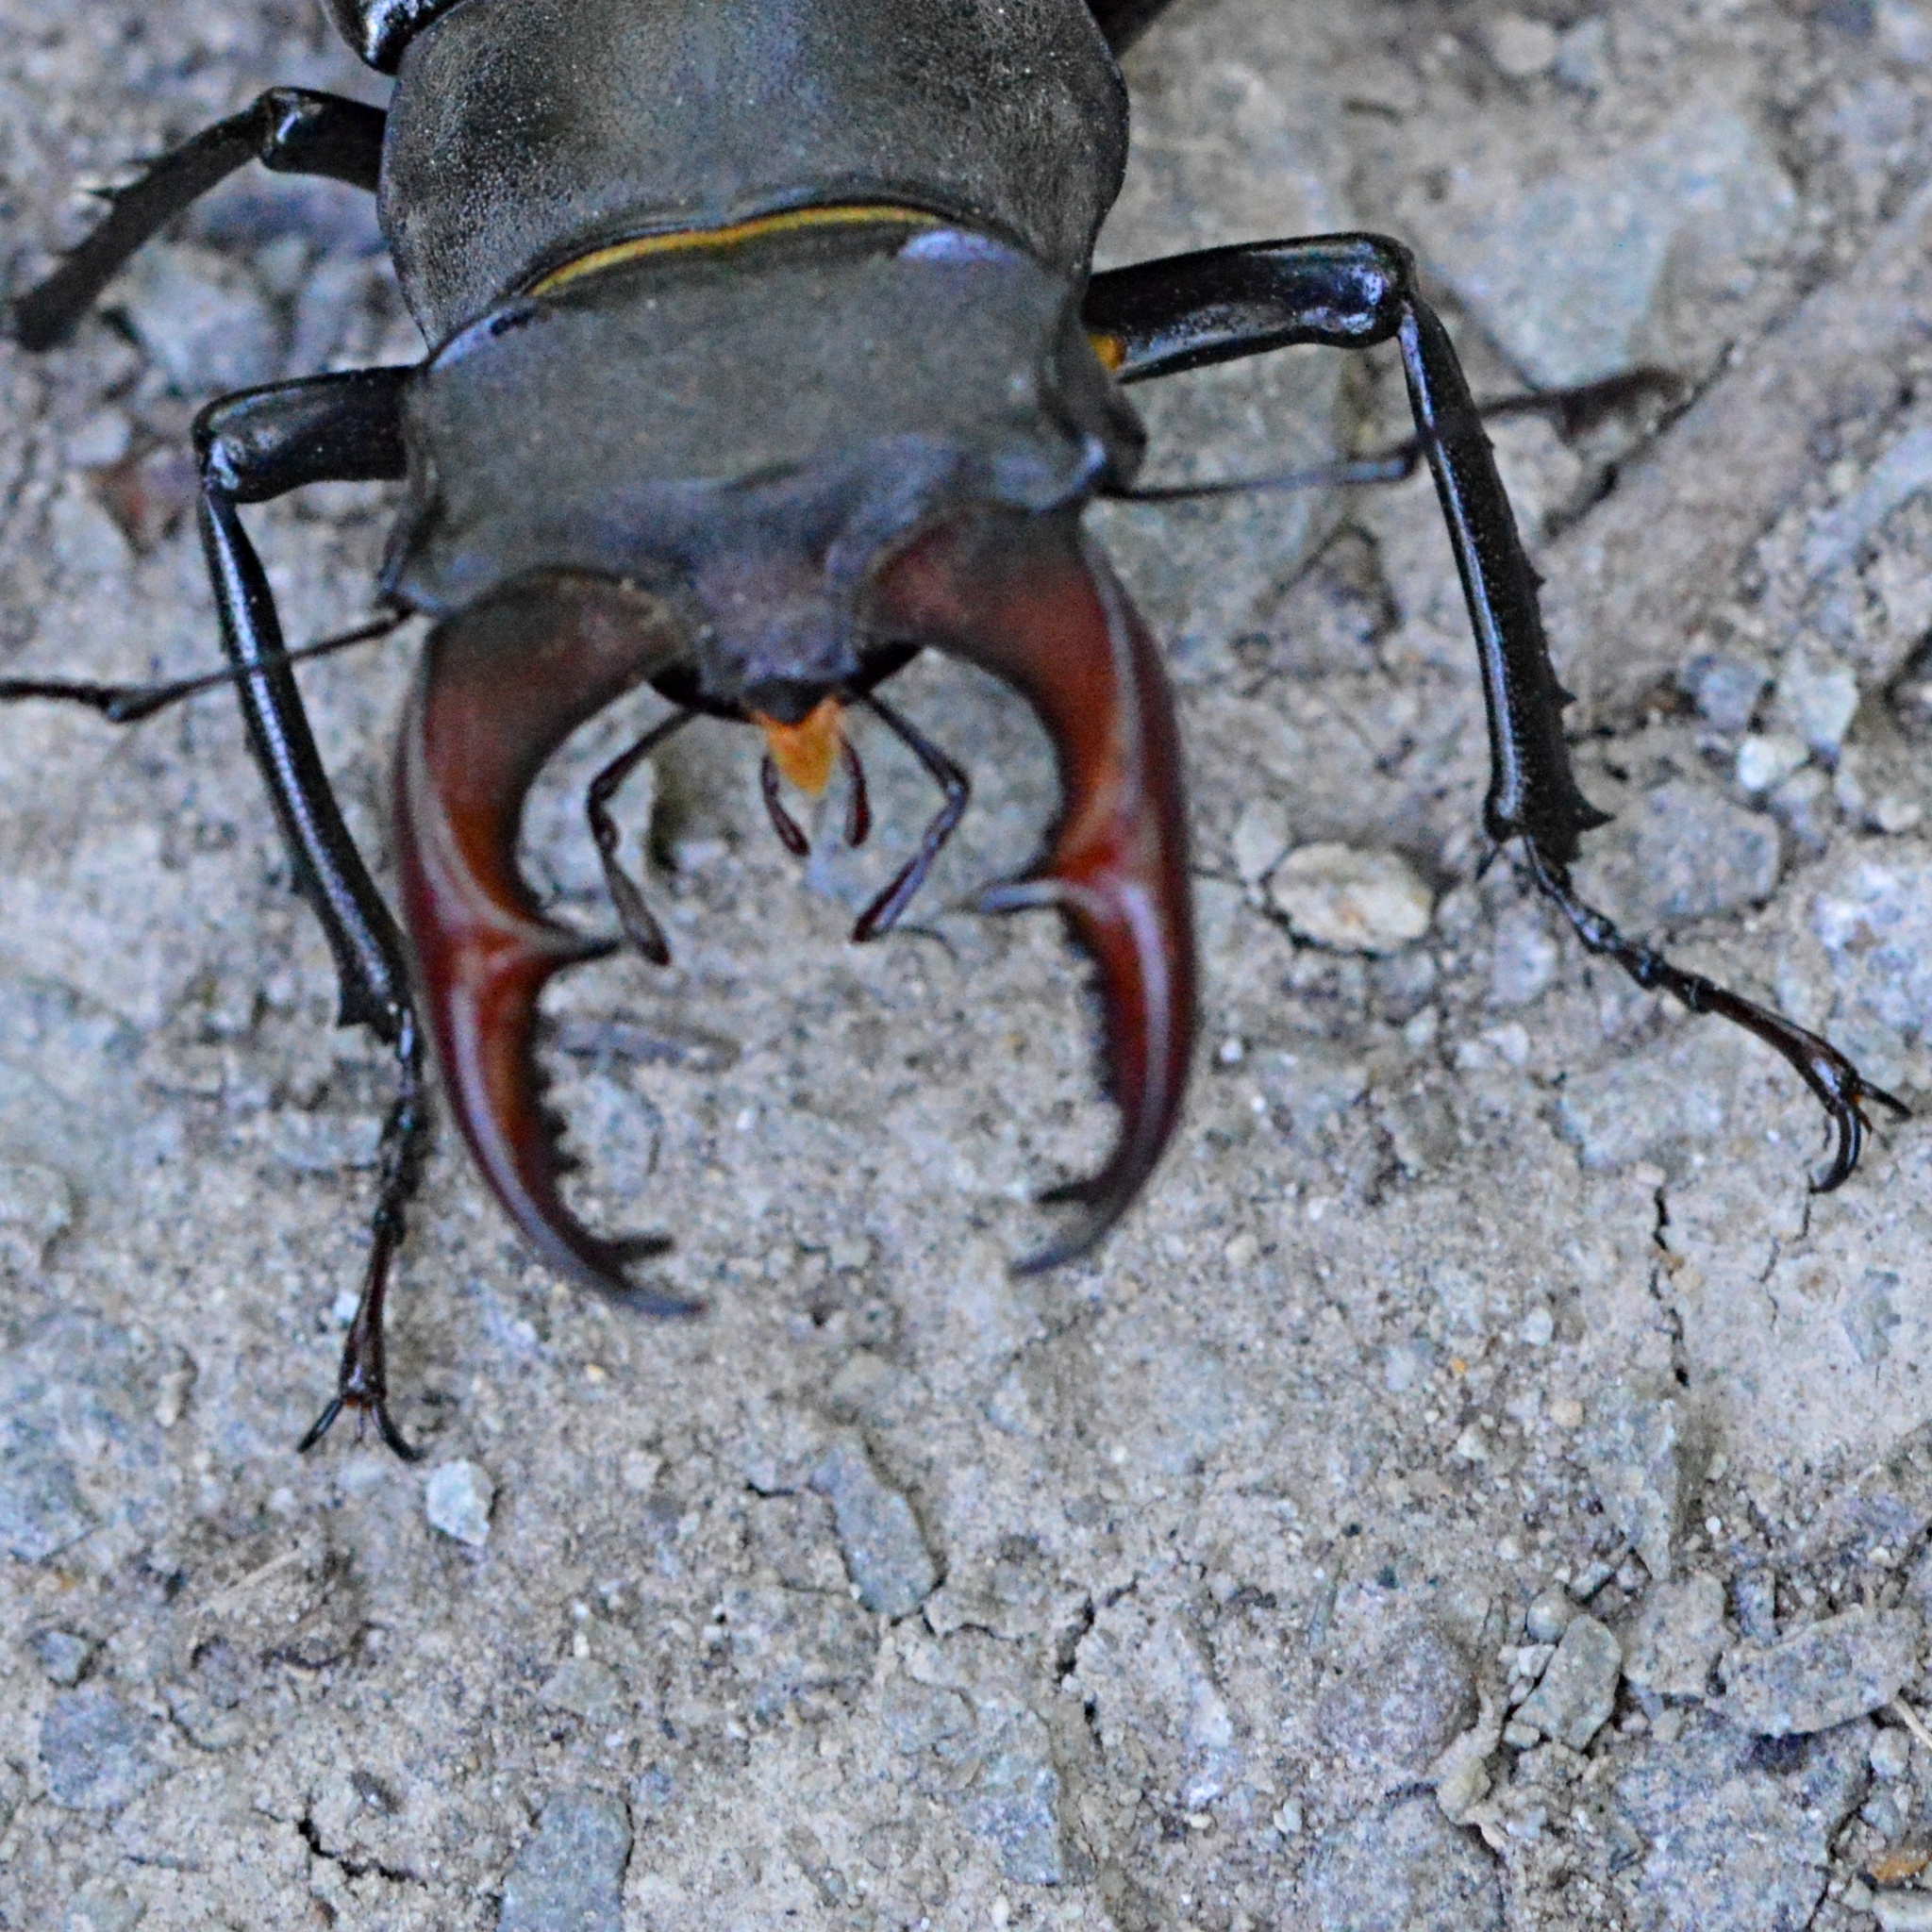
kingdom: Animalia
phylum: Arthropoda
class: Insecta
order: Coleoptera
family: Lucanidae
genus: Lucanus
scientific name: Lucanus cervus
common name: Stag beetle
